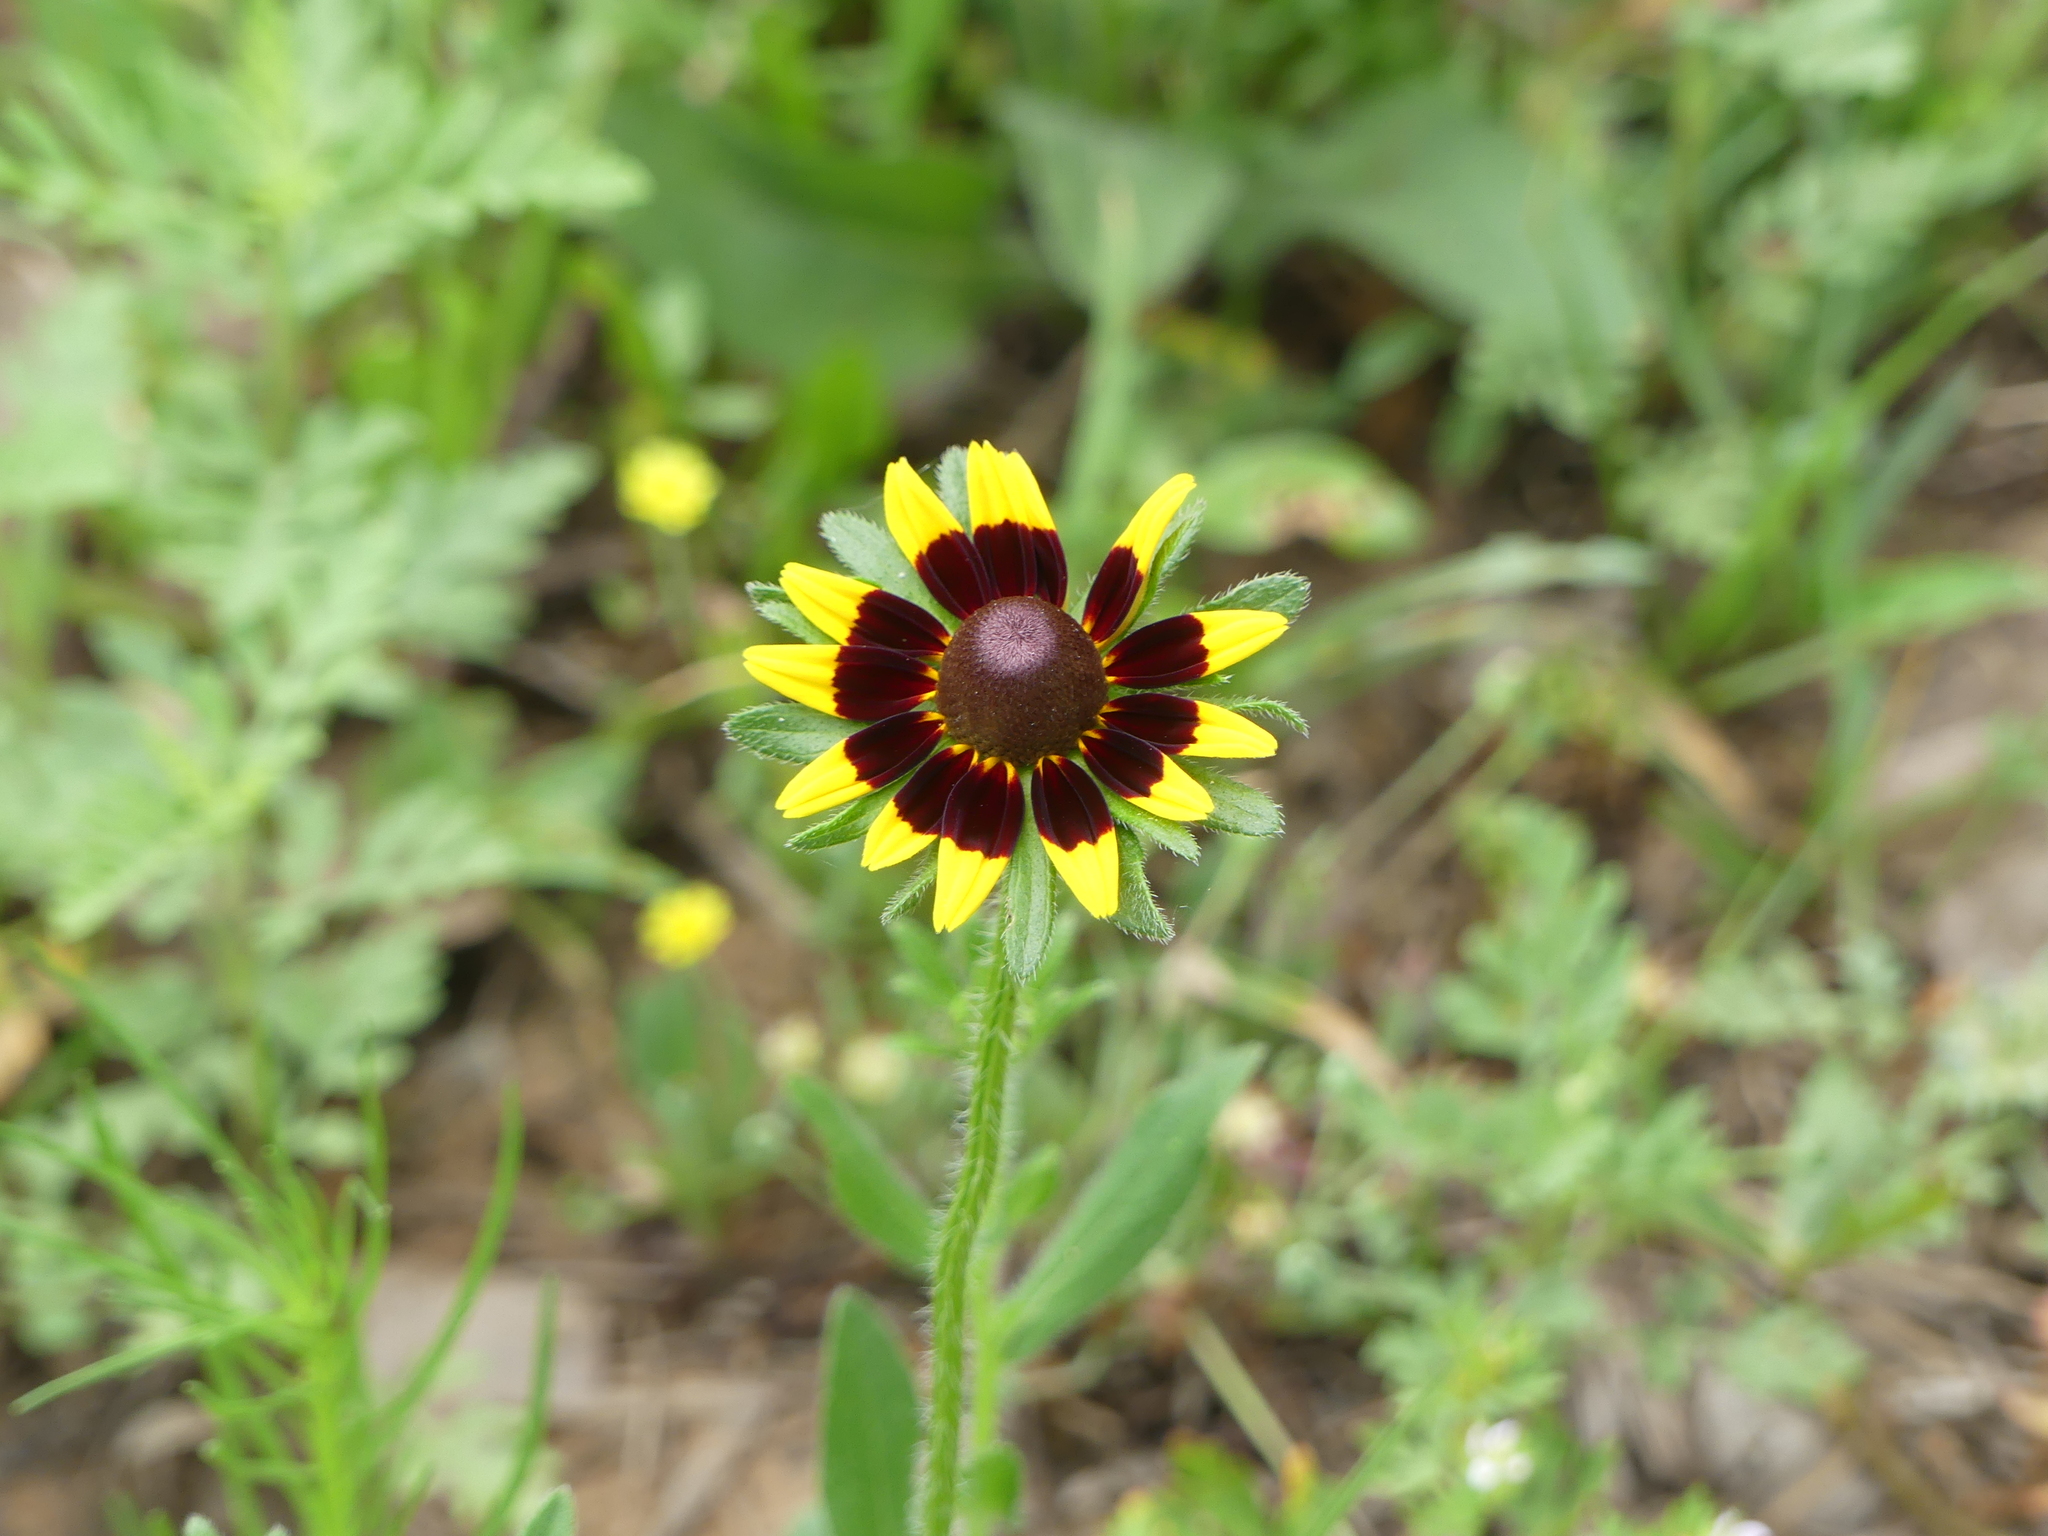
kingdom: Plantae
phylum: Tracheophyta
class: Magnoliopsida
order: Asterales
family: Asteraceae
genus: Rudbeckia
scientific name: Rudbeckia hirta
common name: Black-eyed-susan
